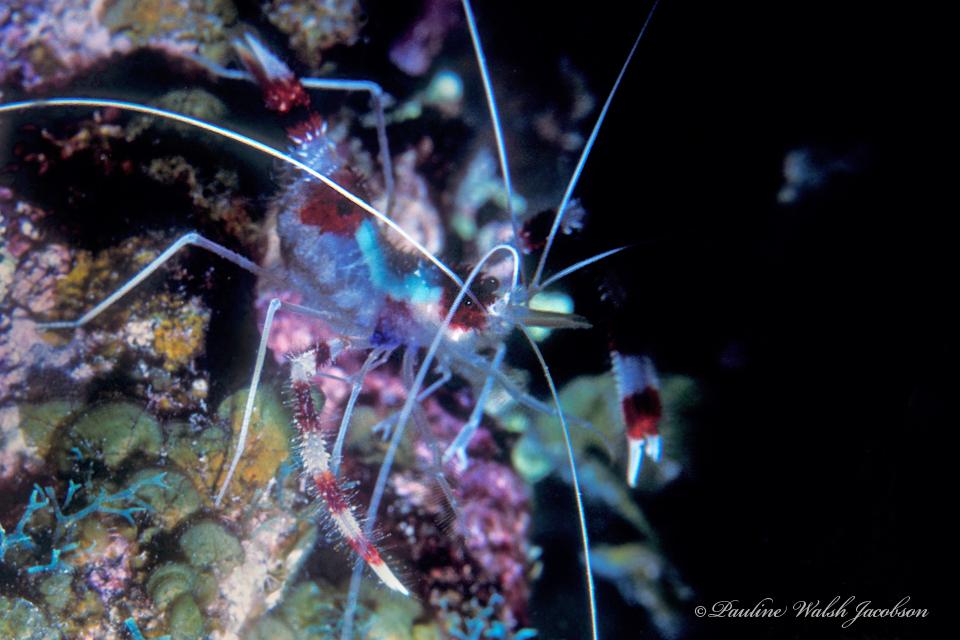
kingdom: Animalia
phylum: Arthropoda
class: Malacostraca
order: Decapoda
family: Stenopodidae
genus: Stenopus
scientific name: Stenopus hispidus
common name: Banded coral shrimp
